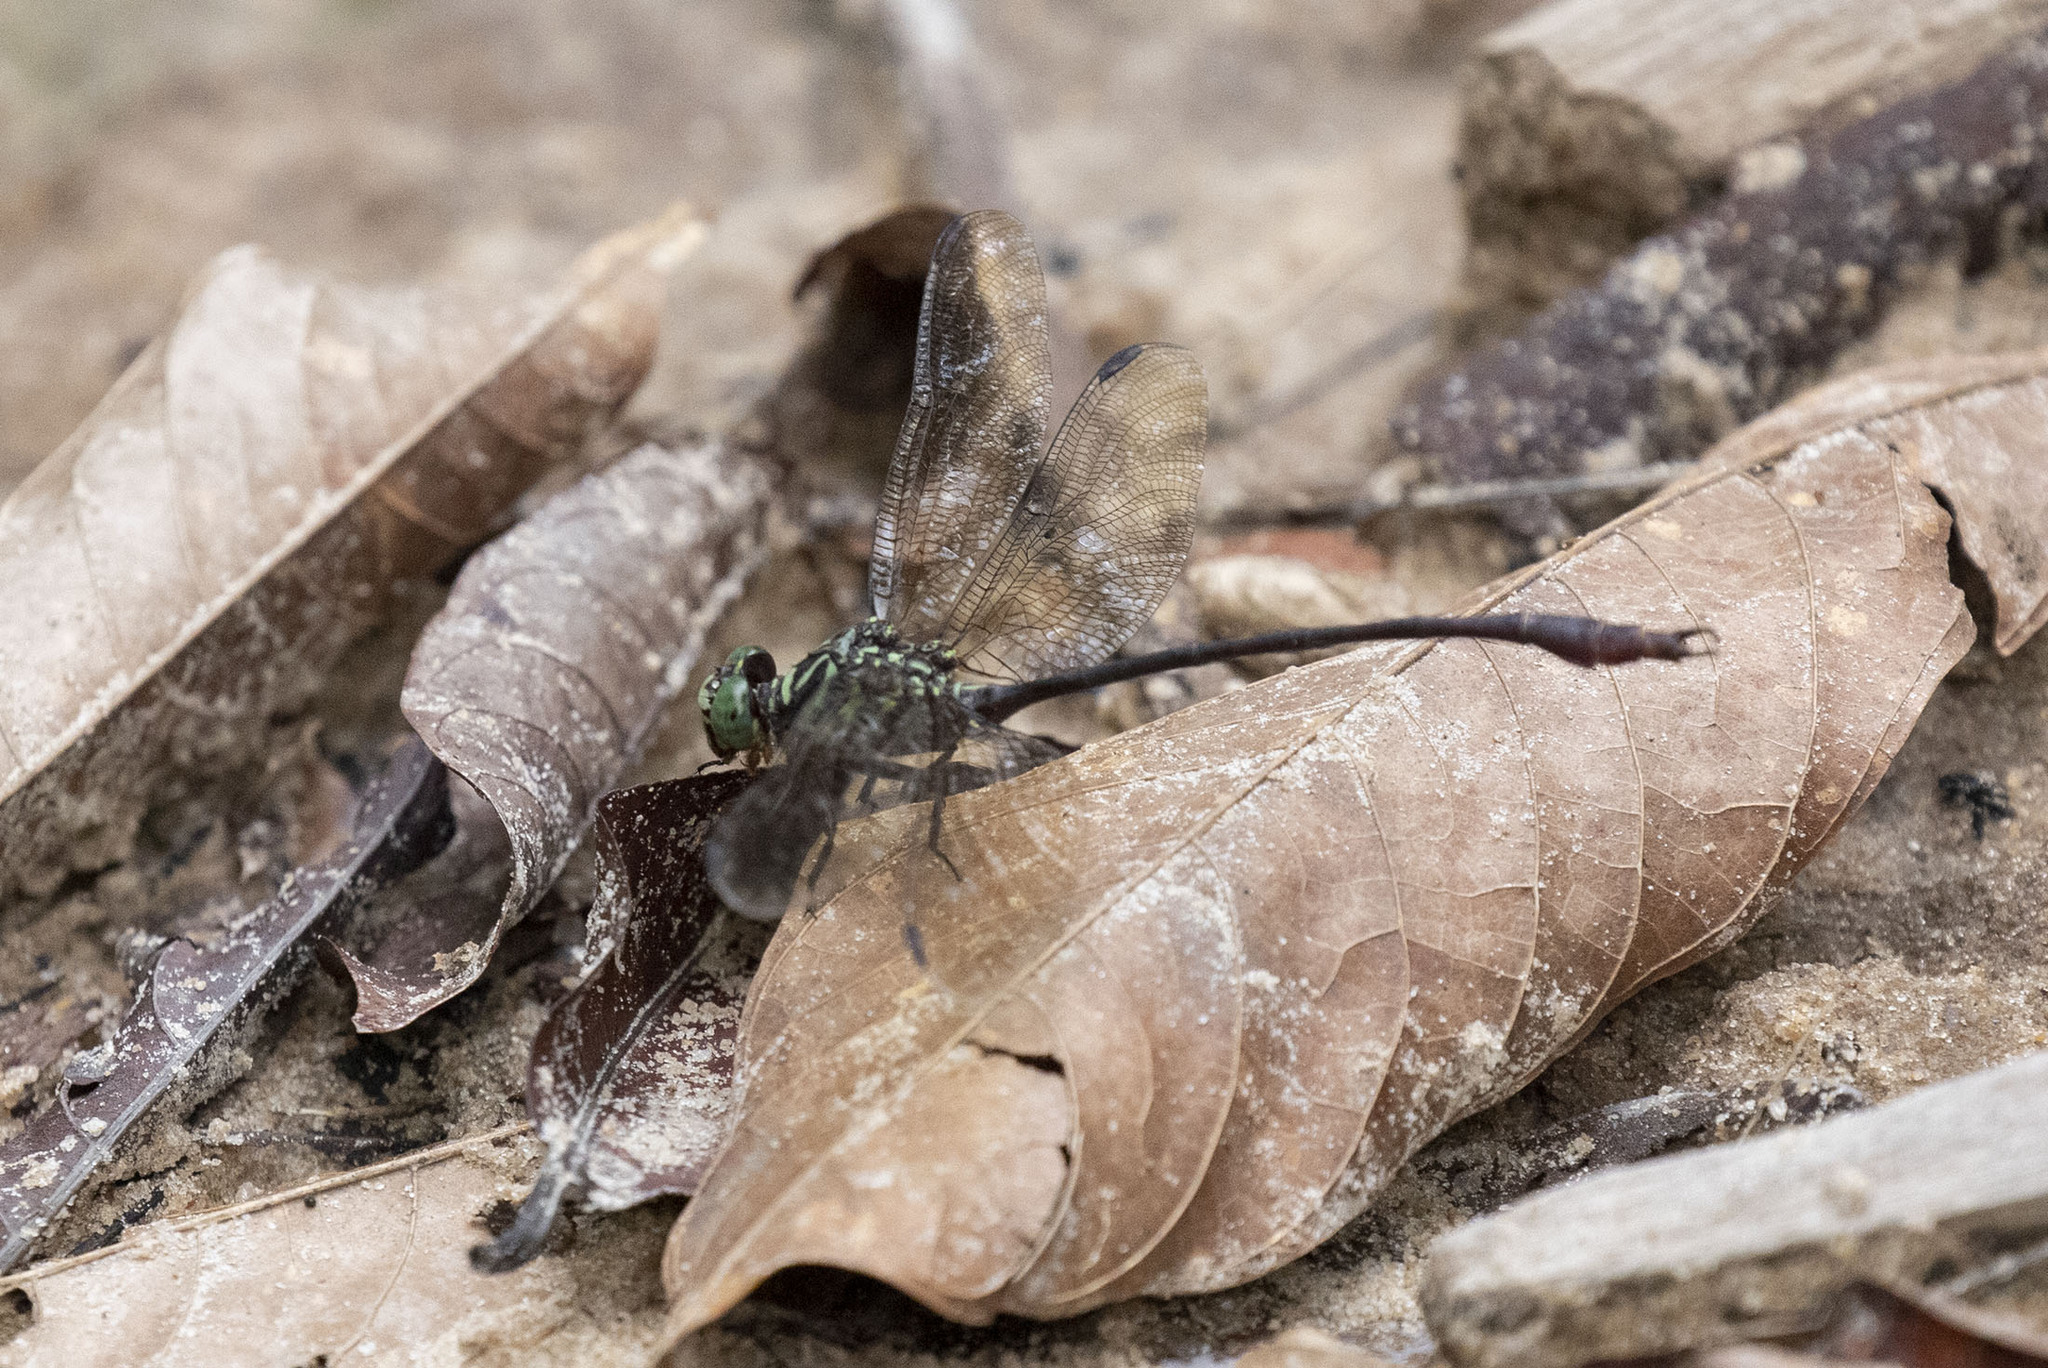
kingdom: Animalia
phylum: Arthropoda
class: Insecta
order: Odonata
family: Gomphidae
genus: Aphylla
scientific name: Aphylla dentata
